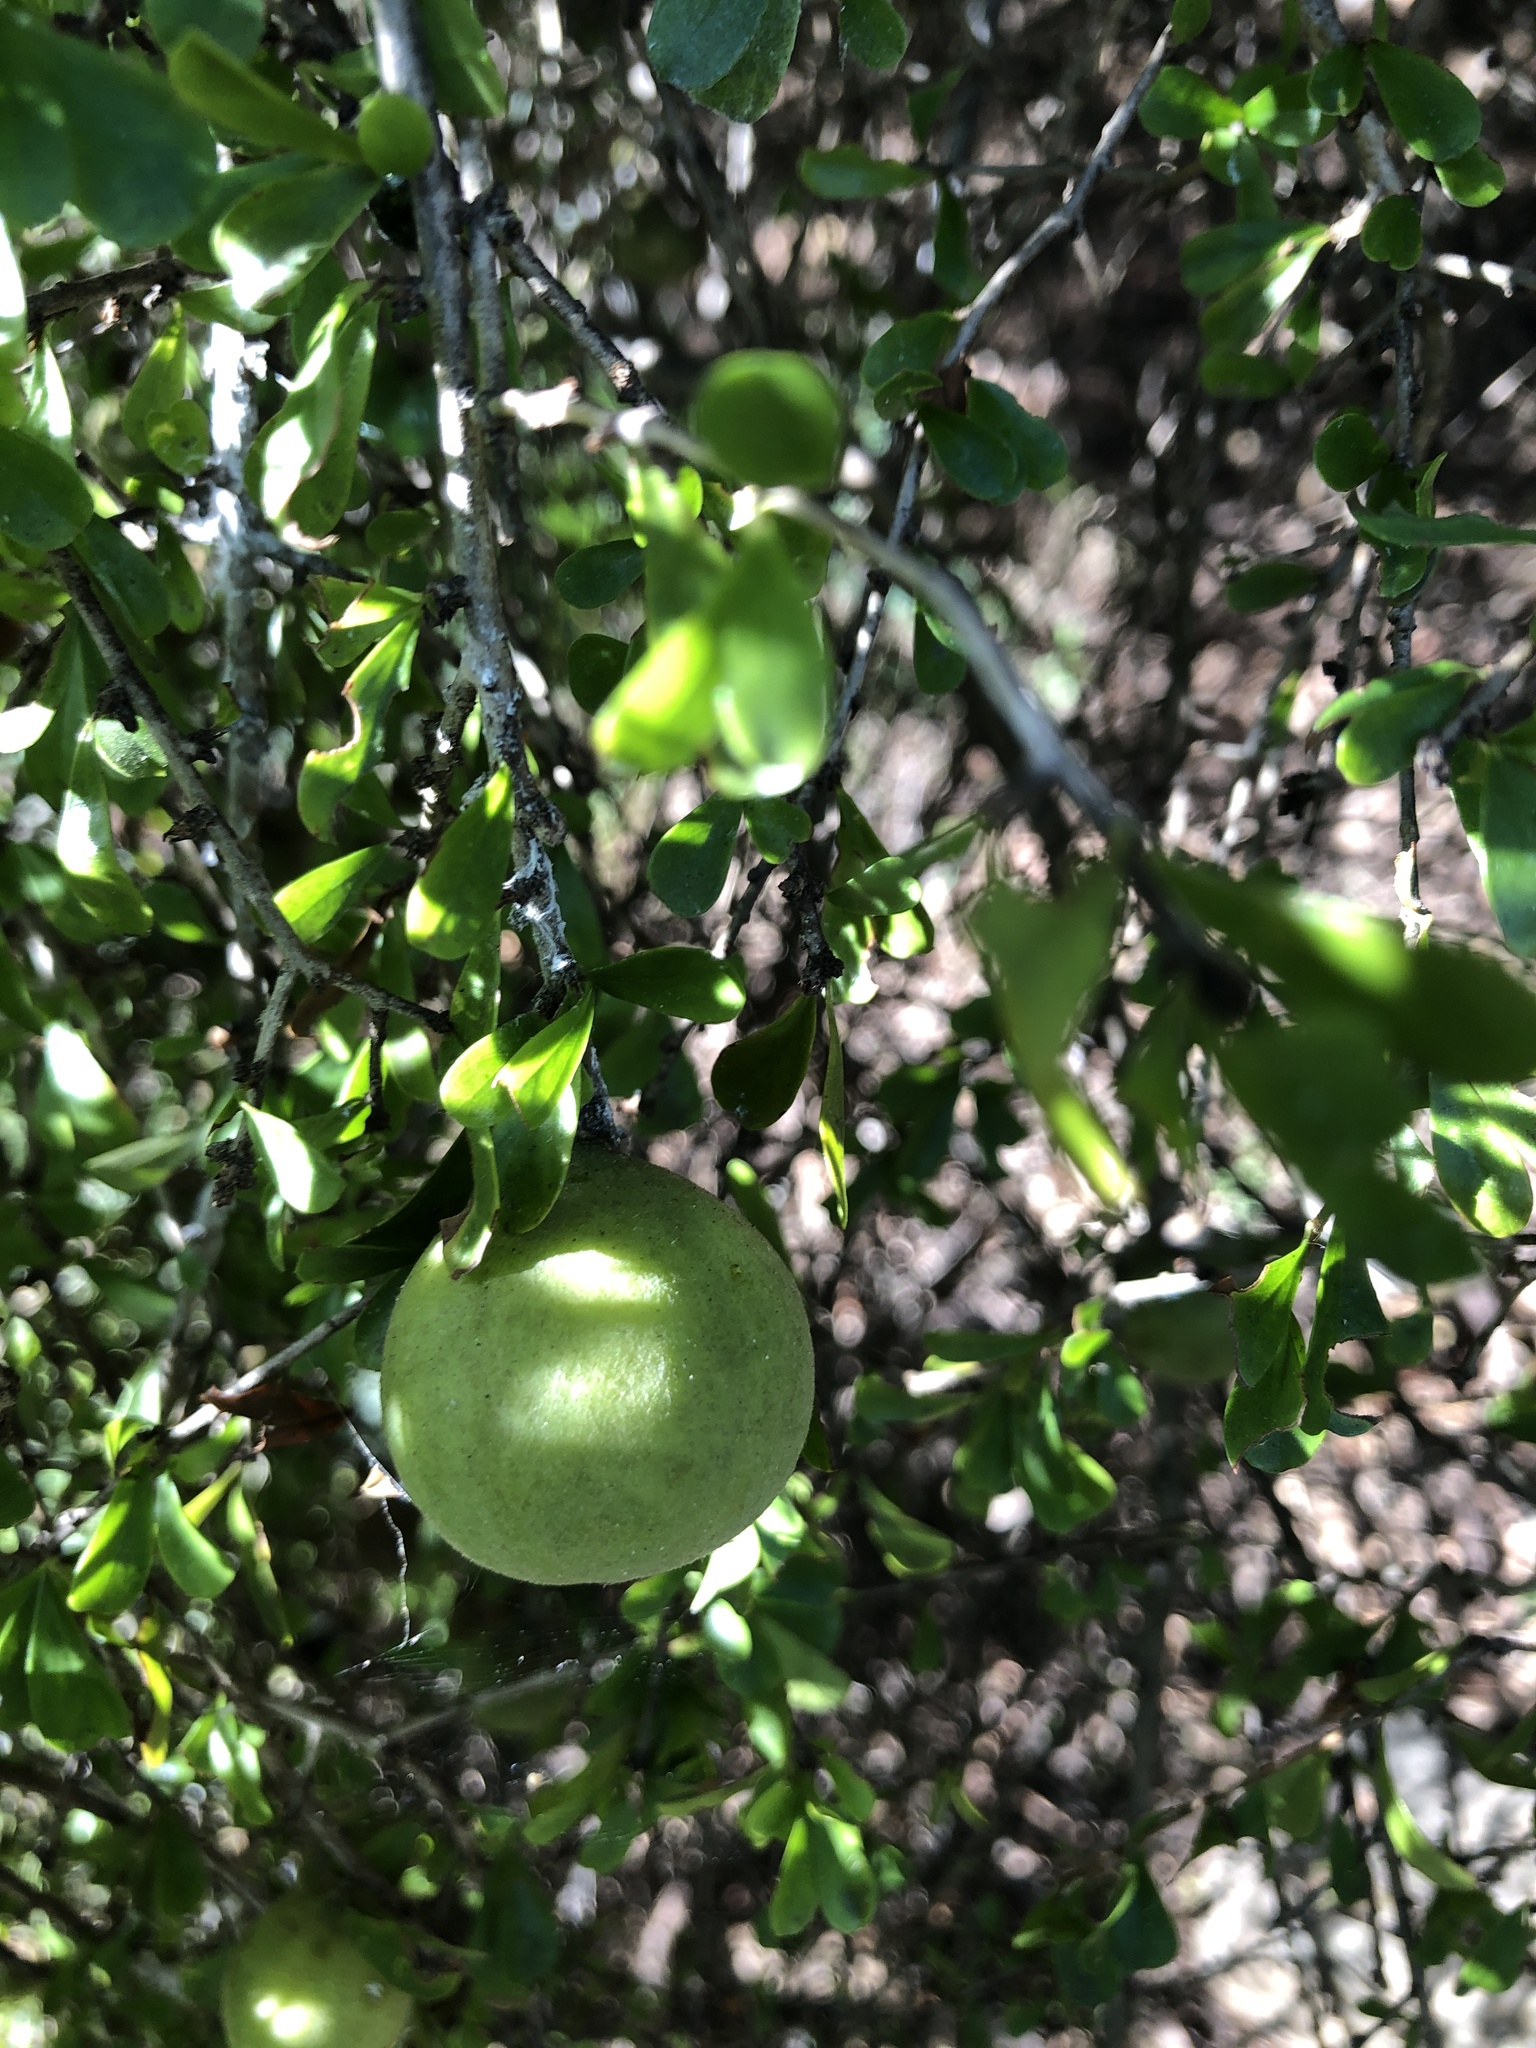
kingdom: Plantae
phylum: Tracheophyta
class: Magnoliopsida
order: Apiales
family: Pittosporaceae
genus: Pittosporum
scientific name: Pittosporum spinescens
